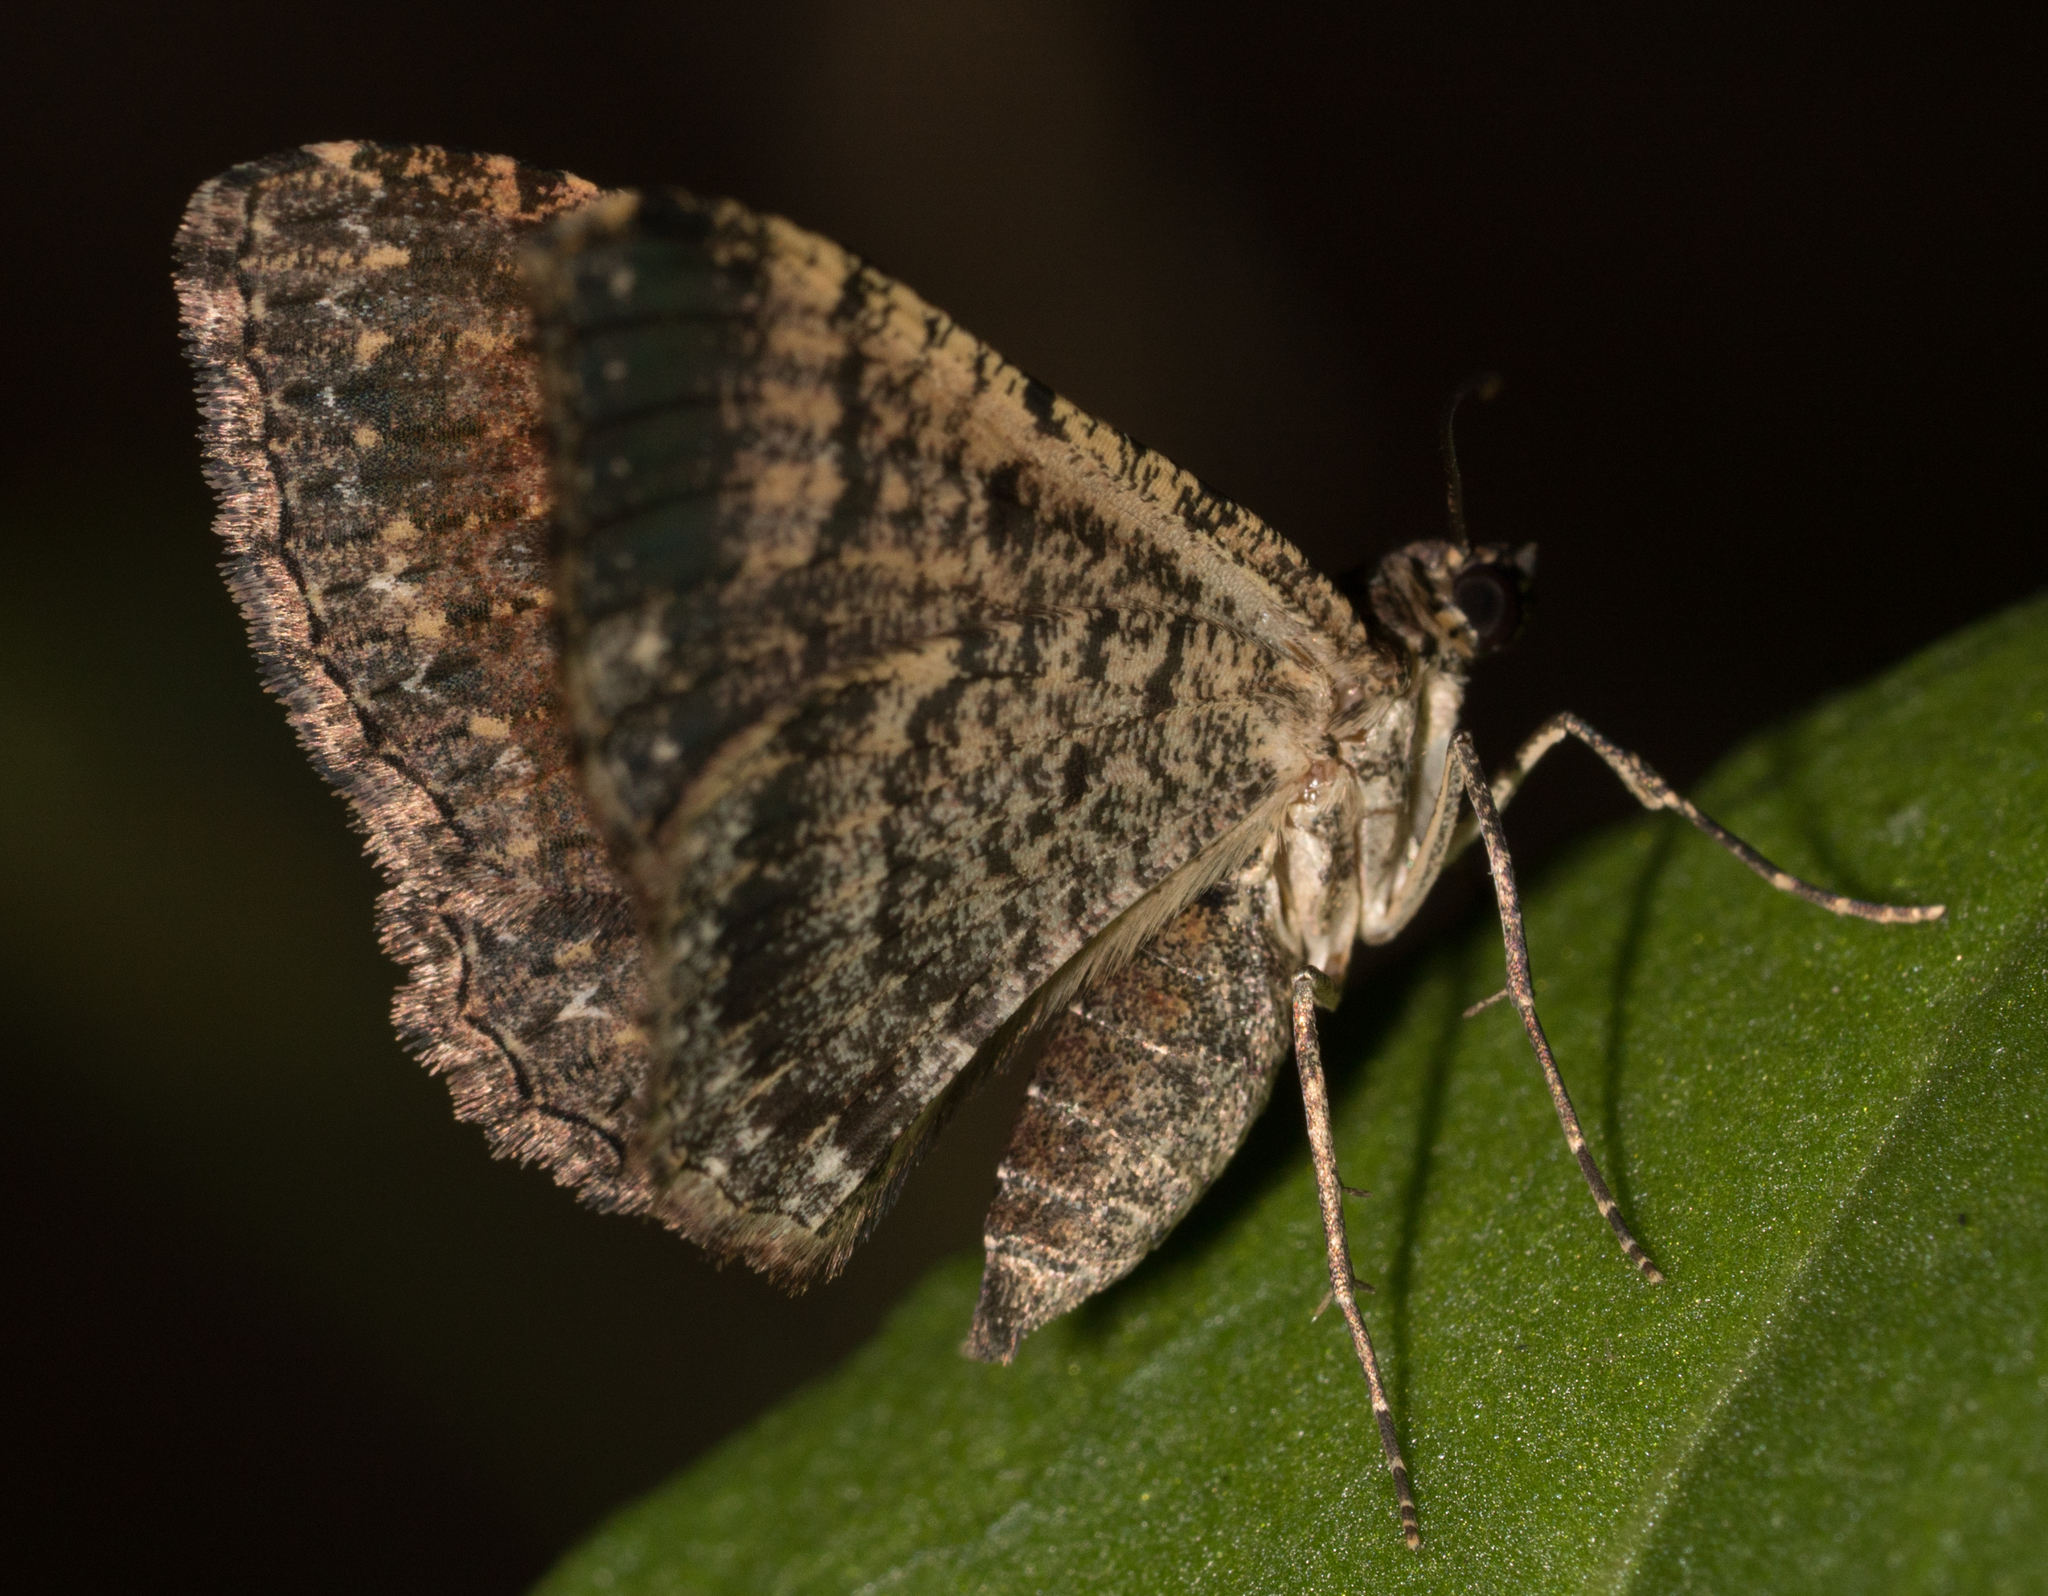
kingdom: Animalia
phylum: Arthropoda
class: Insecta
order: Lepidoptera
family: Geometridae
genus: Disclisioprocta
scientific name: Disclisioprocta stellata
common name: Somber carpet
